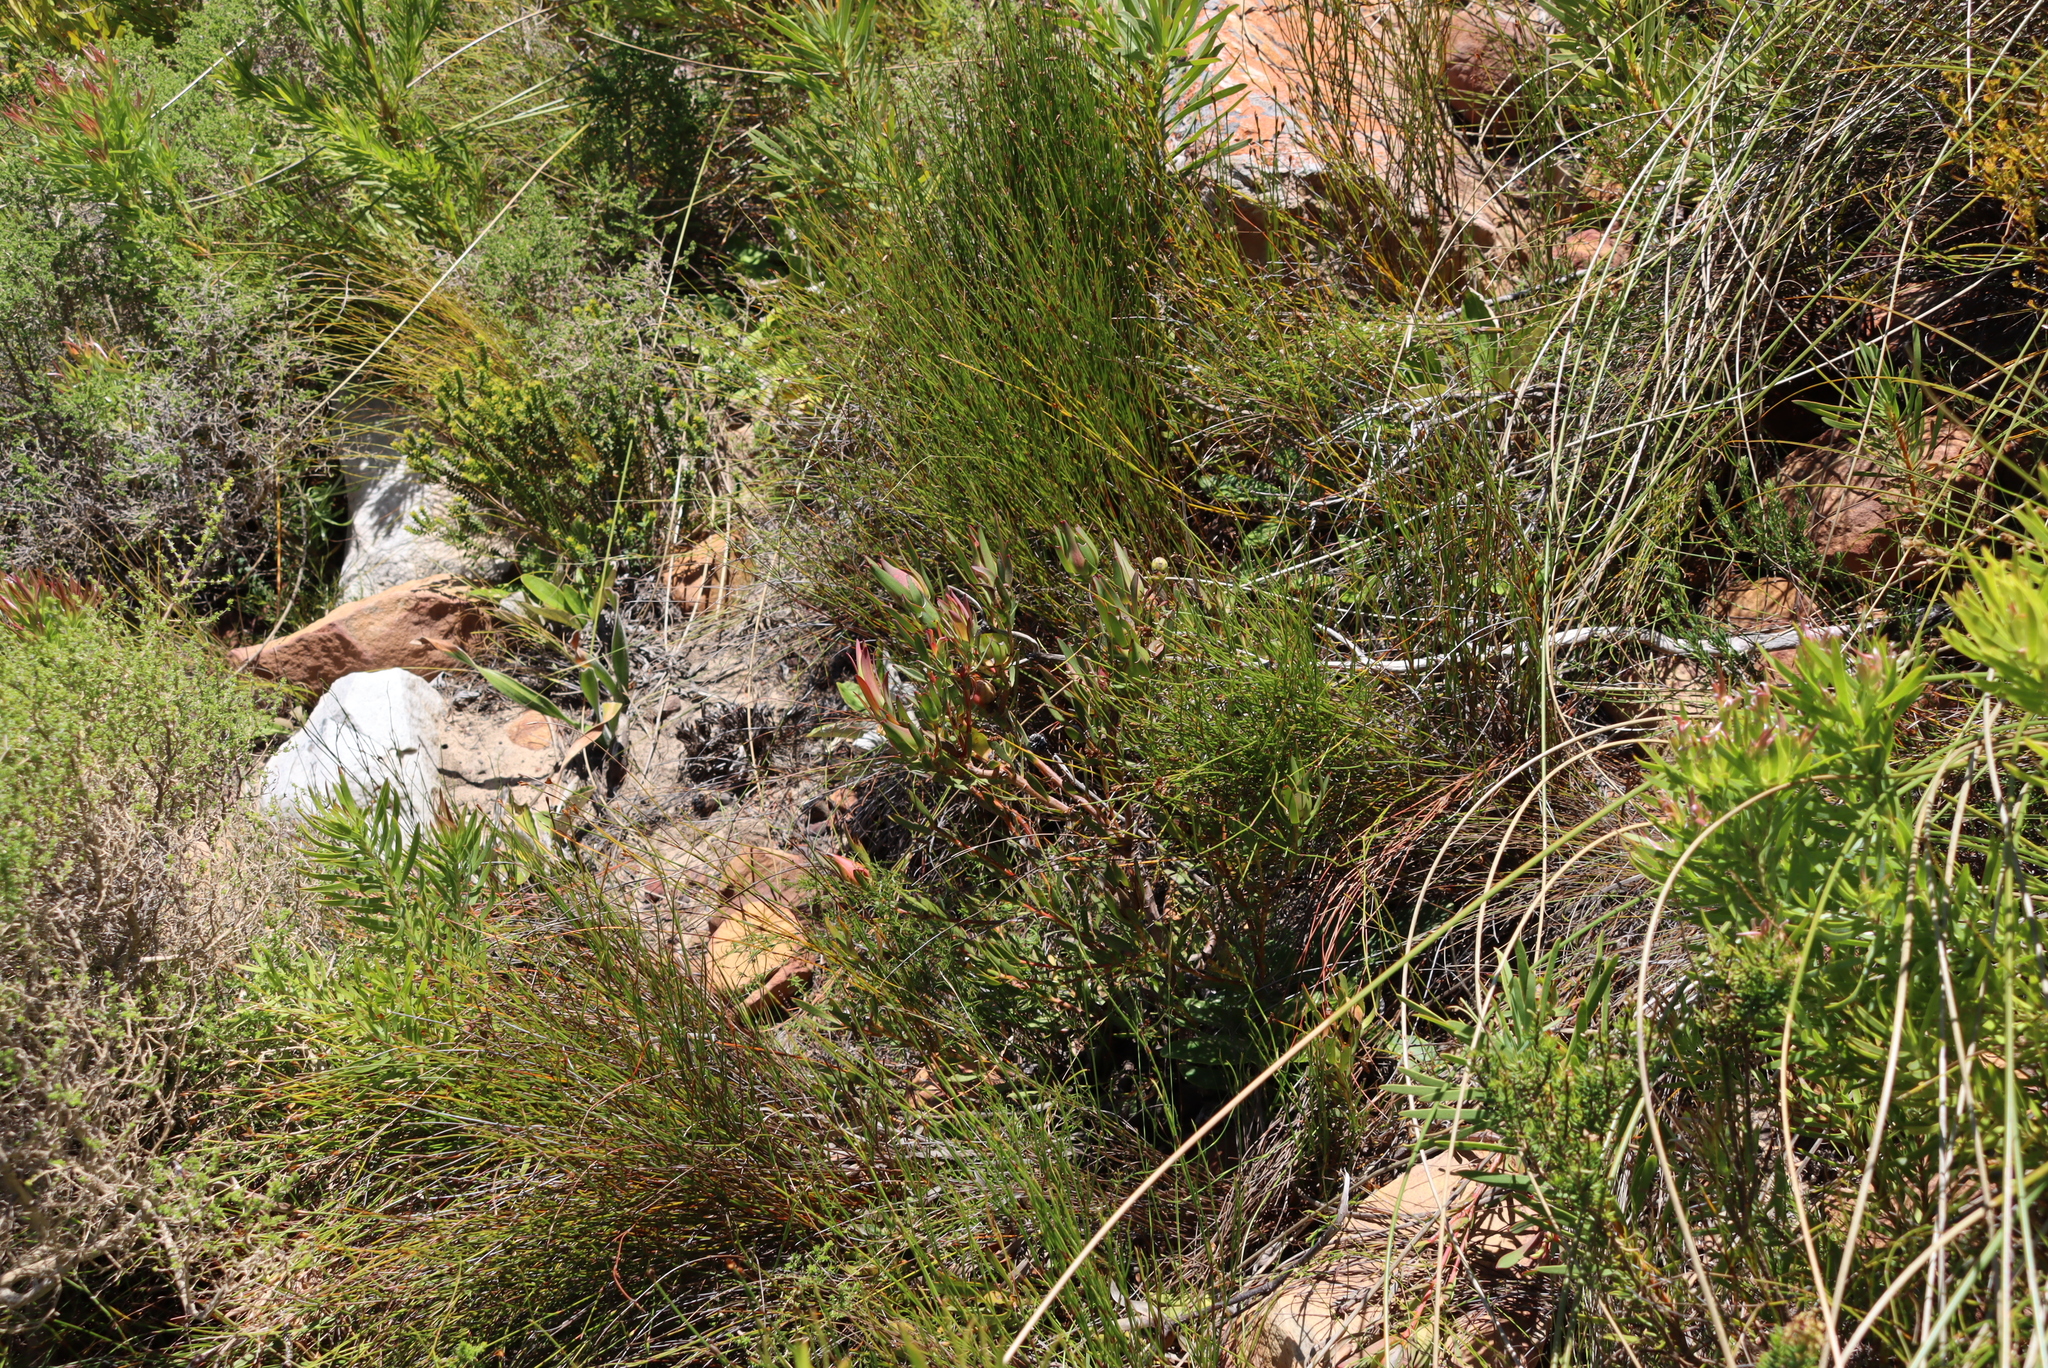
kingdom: Plantae
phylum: Tracheophyta
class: Magnoliopsida
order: Proteales
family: Proteaceae
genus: Leucadendron
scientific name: Leucadendron salignum
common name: Common sunshine conebush
